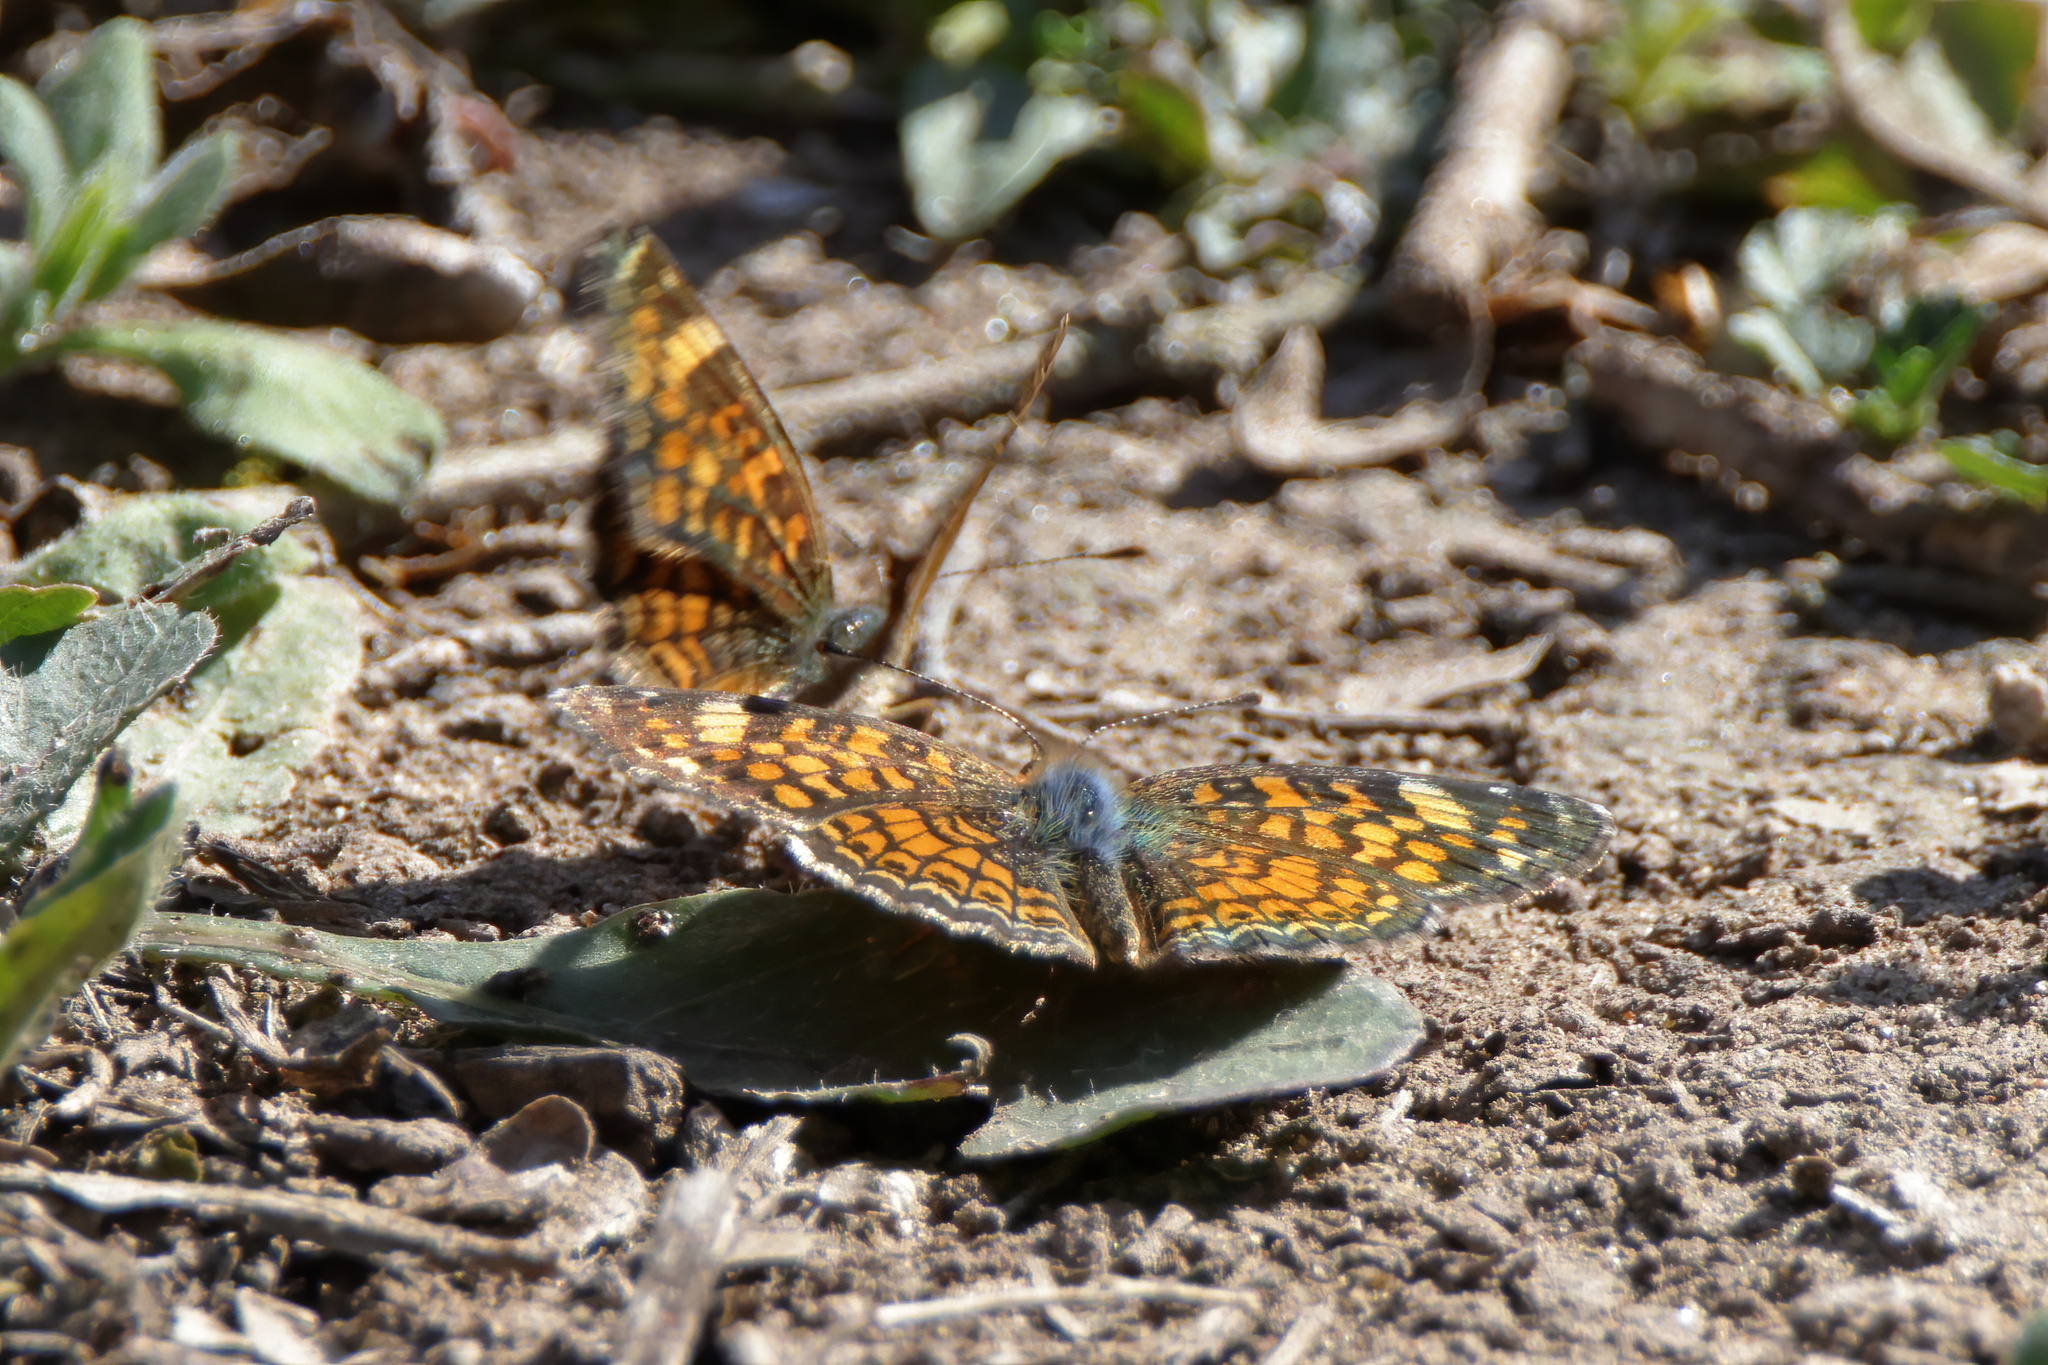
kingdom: Animalia
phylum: Arthropoda
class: Insecta
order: Lepidoptera
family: Nymphalidae
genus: Phyciodes
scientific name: Phyciodes vesta
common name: Vesta crescent
